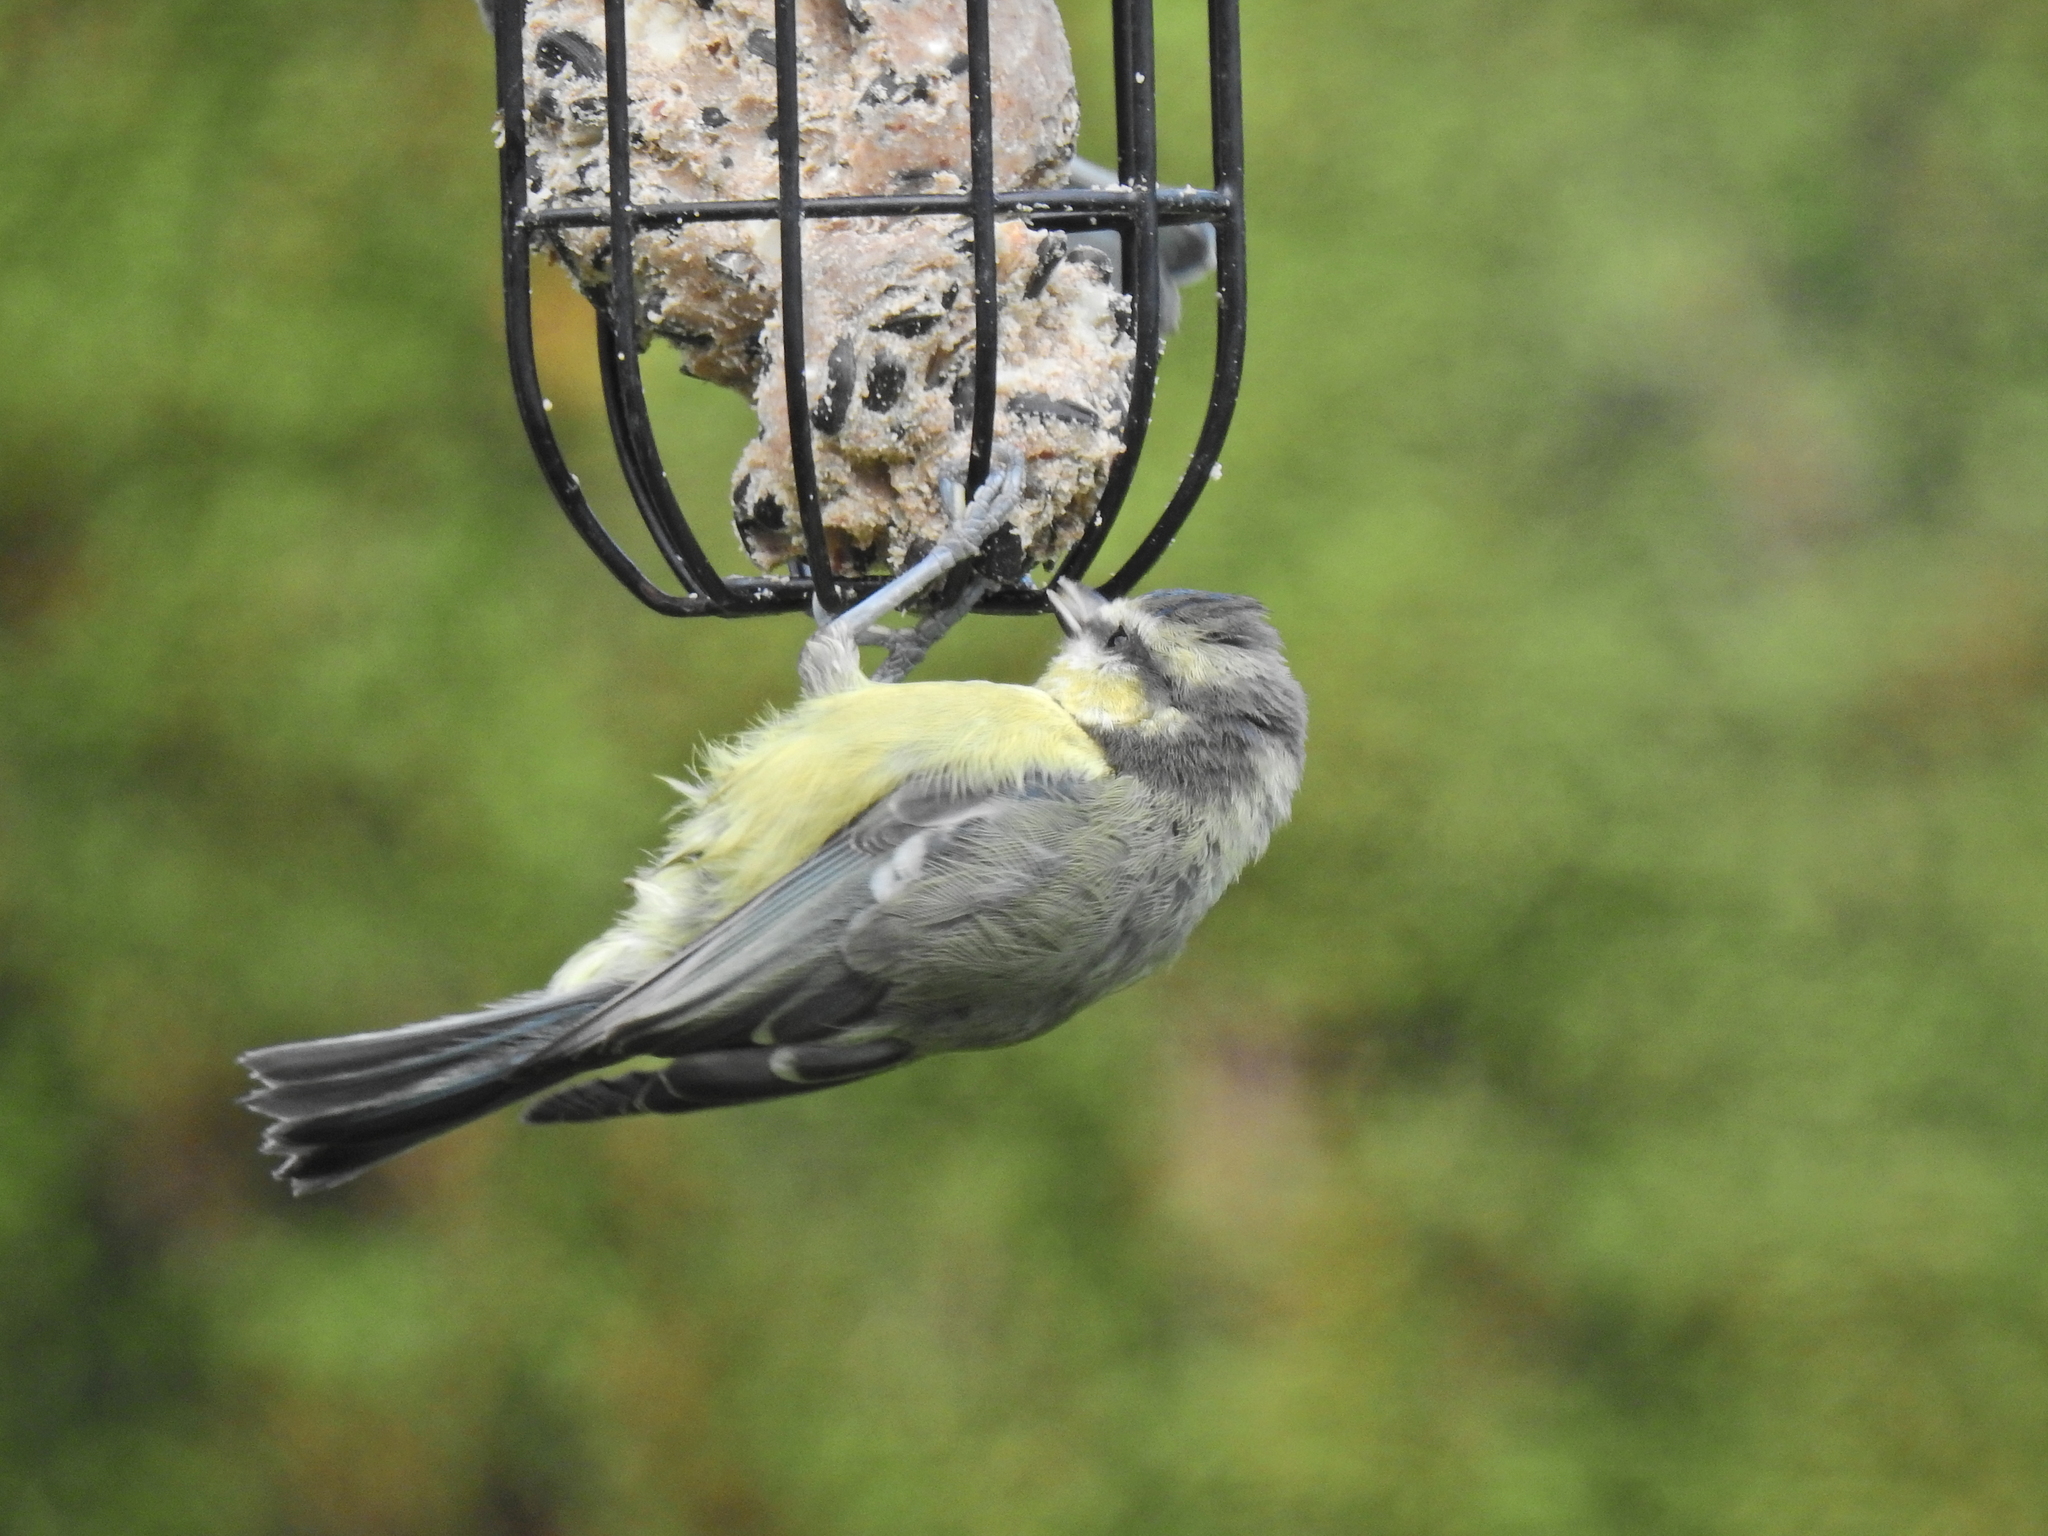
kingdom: Animalia
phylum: Chordata
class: Aves
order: Passeriformes
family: Paridae
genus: Cyanistes
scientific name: Cyanistes caeruleus
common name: Eurasian blue tit
